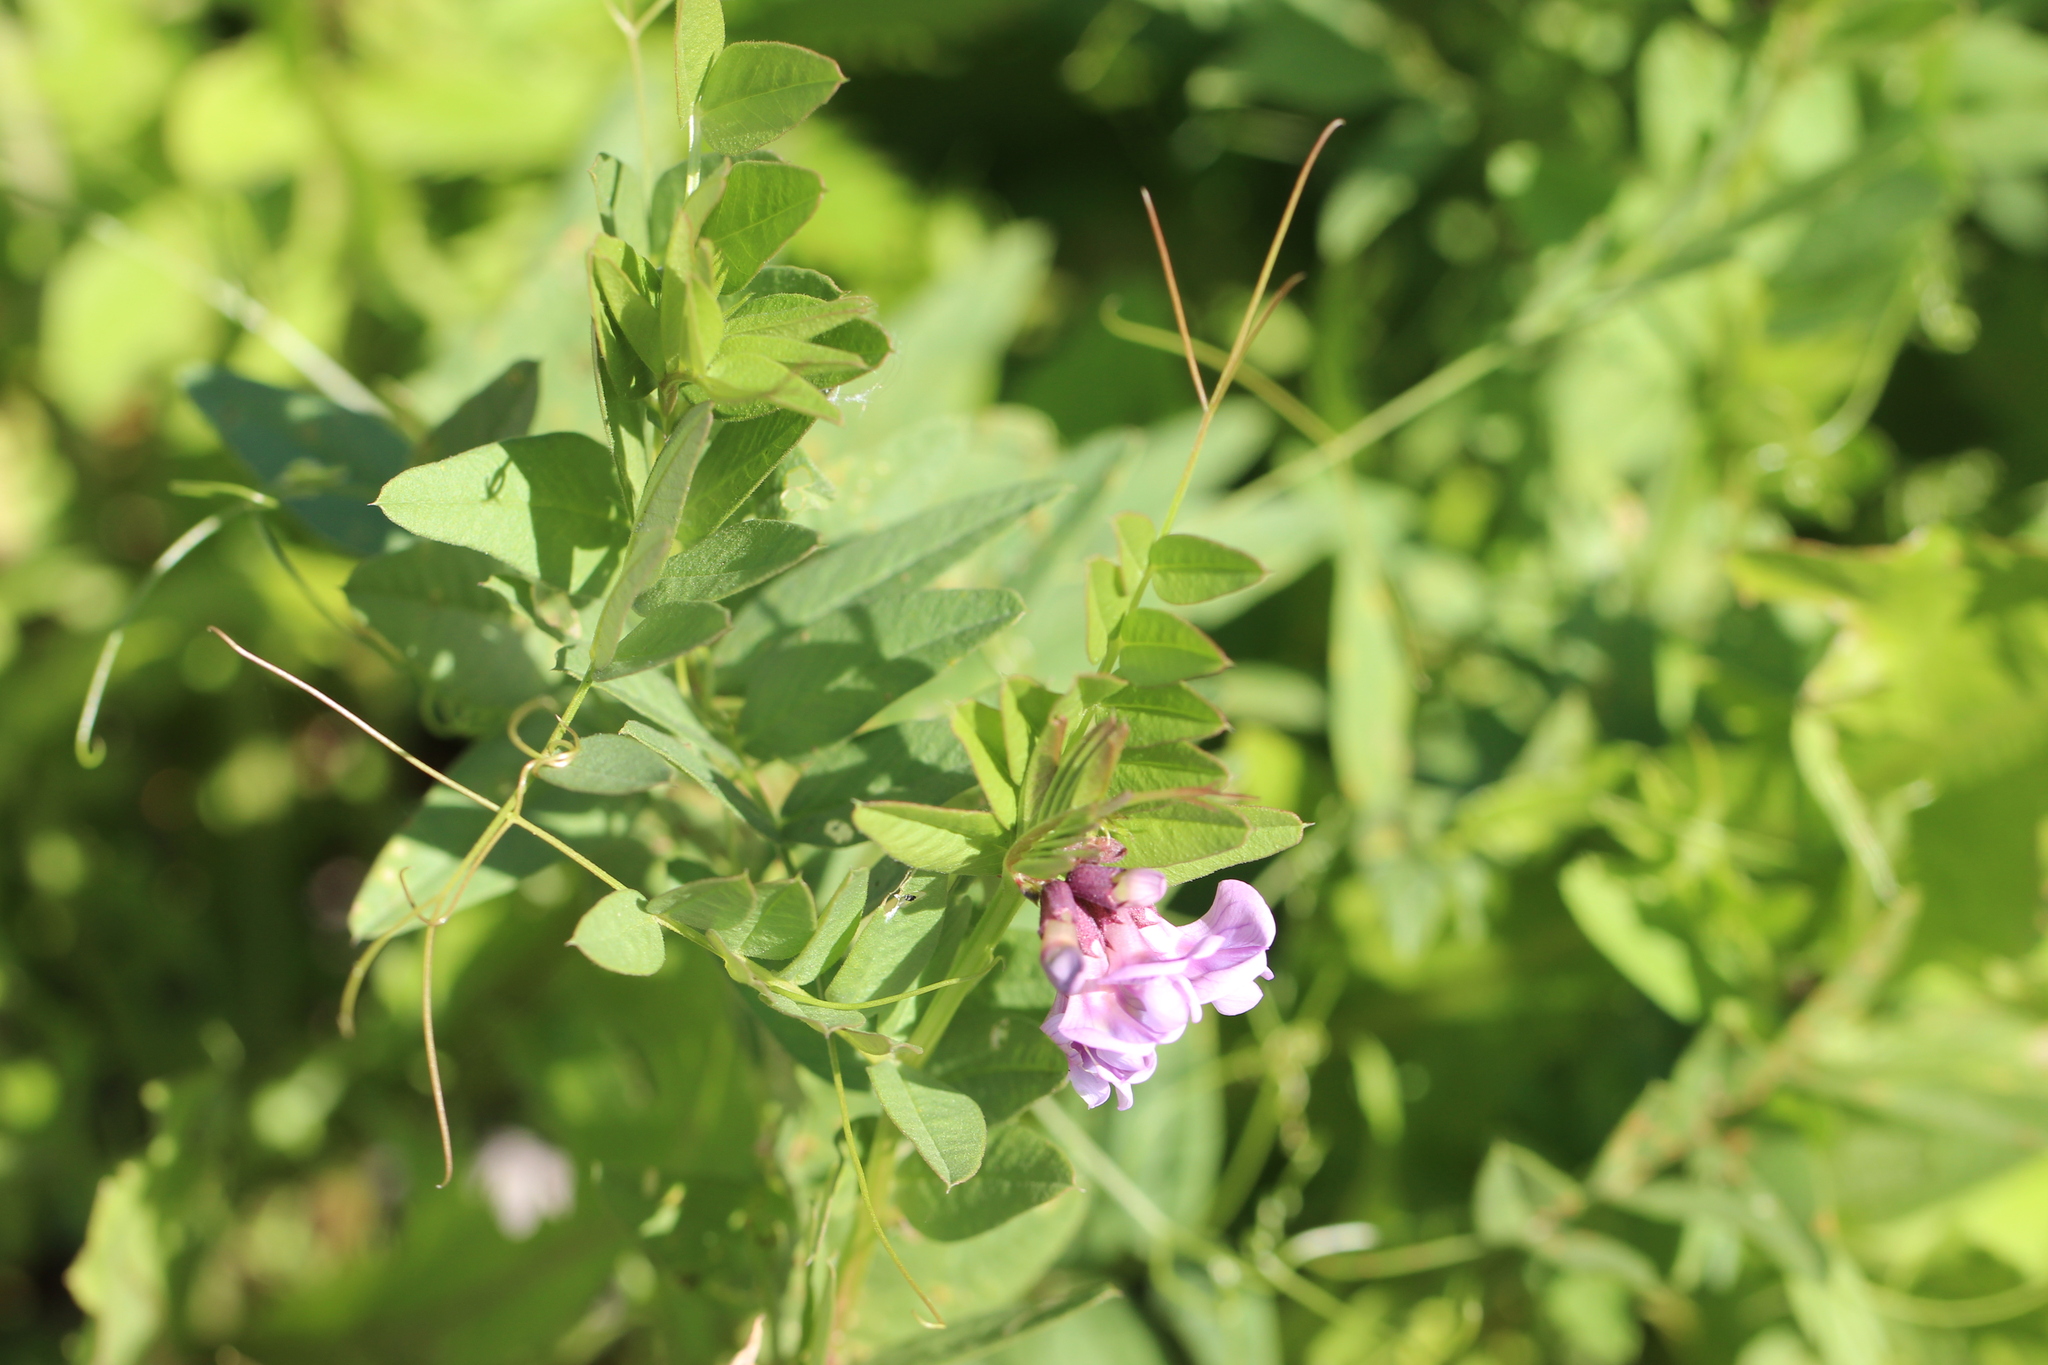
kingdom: Plantae
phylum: Tracheophyta
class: Magnoliopsida
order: Fabales
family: Fabaceae
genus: Vicia
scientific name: Vicia sepium
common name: Bush vetch
